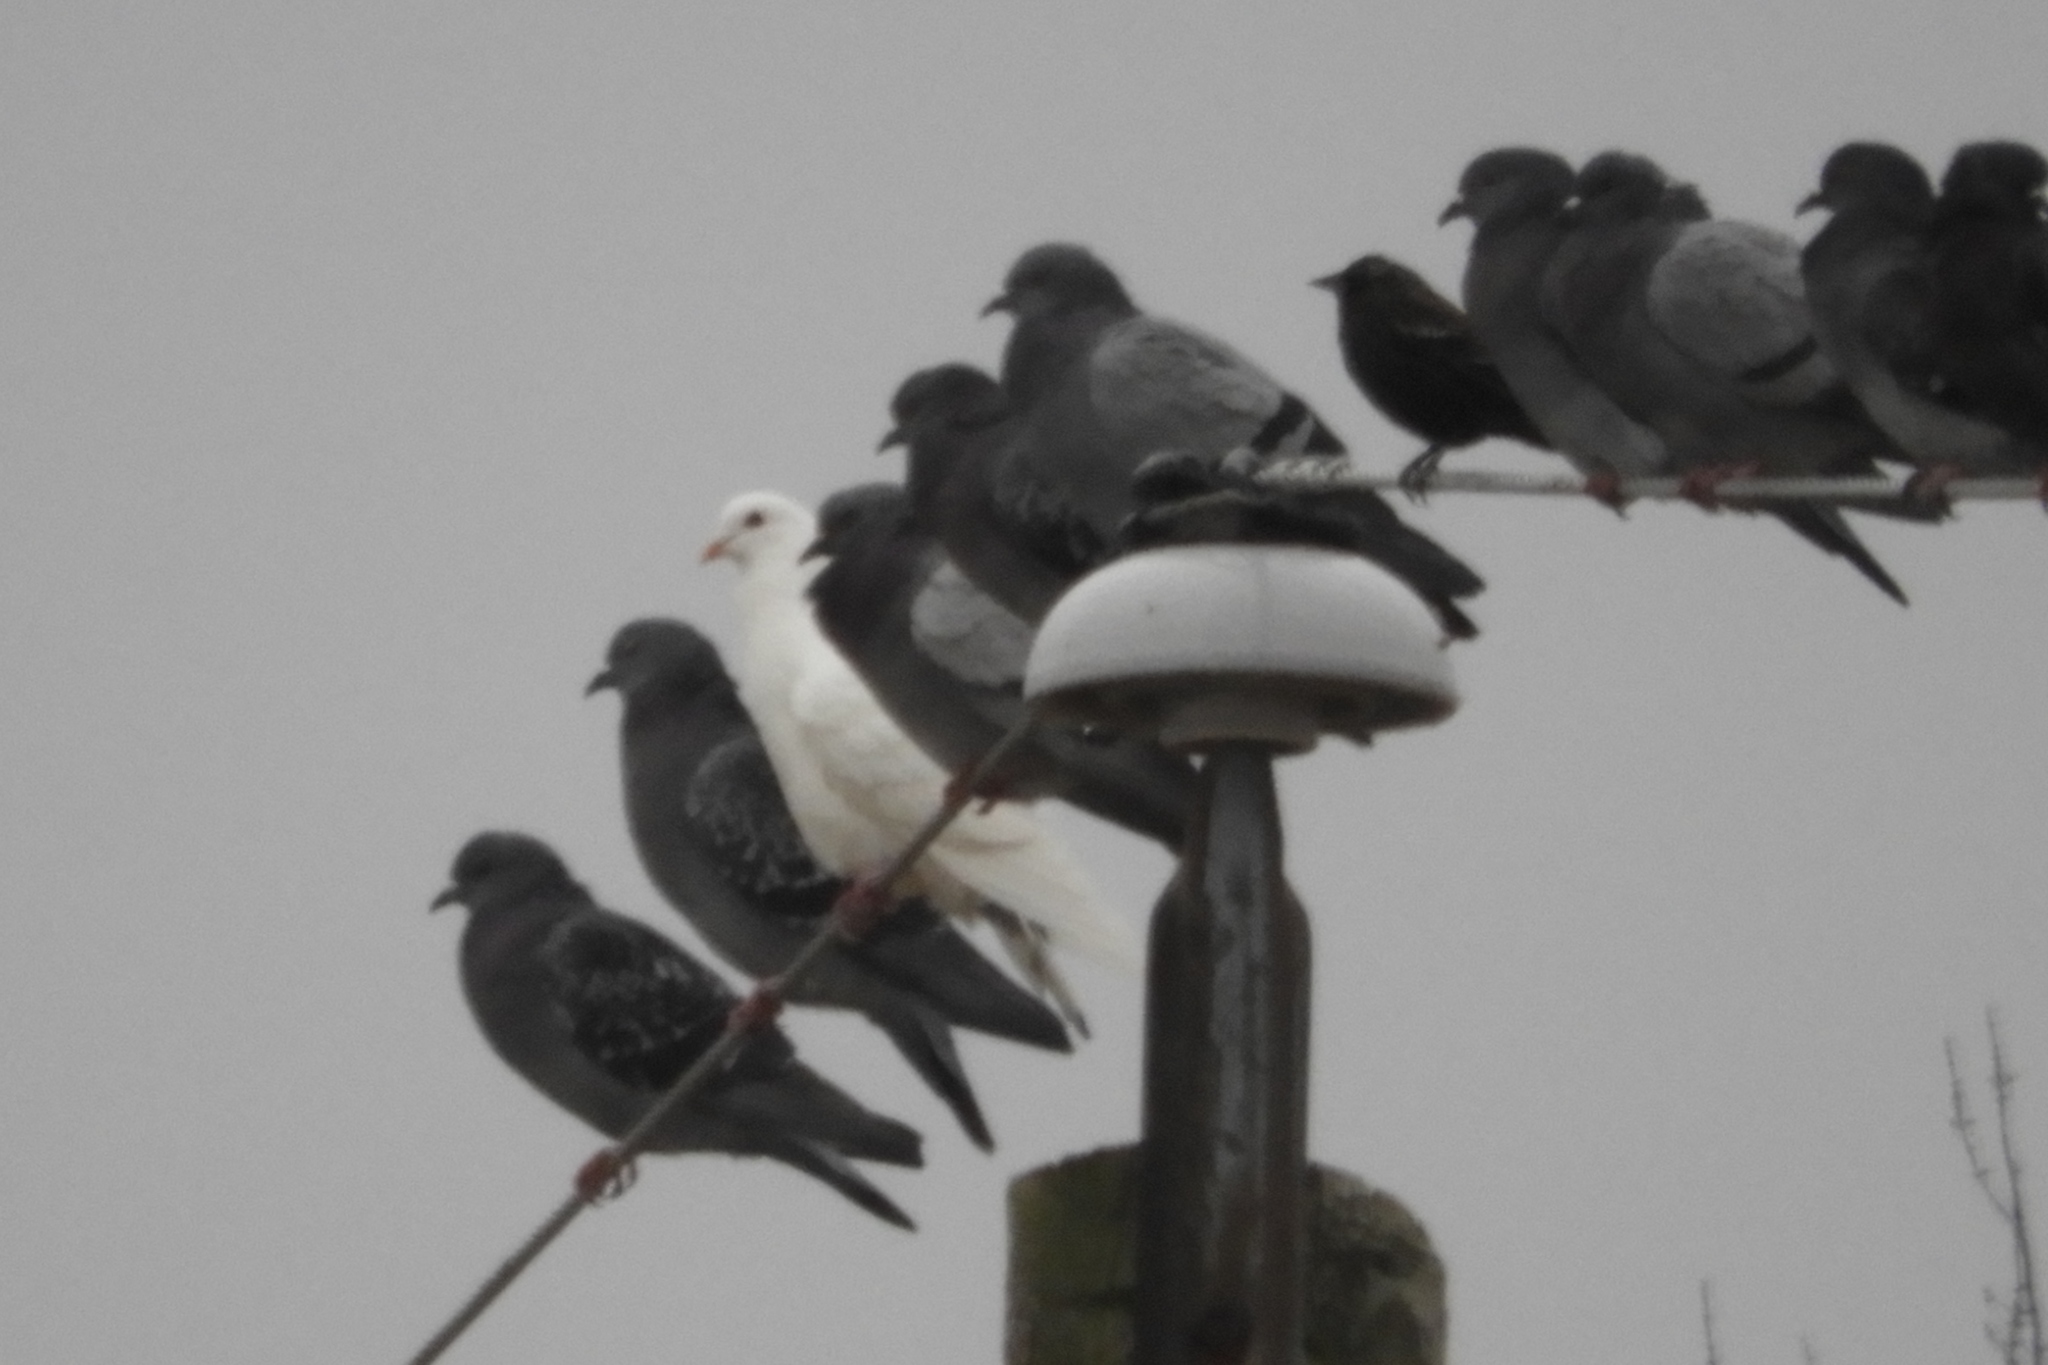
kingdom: Animalia
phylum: Chordata
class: Aves
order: Columbiformes
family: Columbidae
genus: Columba
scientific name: Columba livia
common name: Rock pigeon
